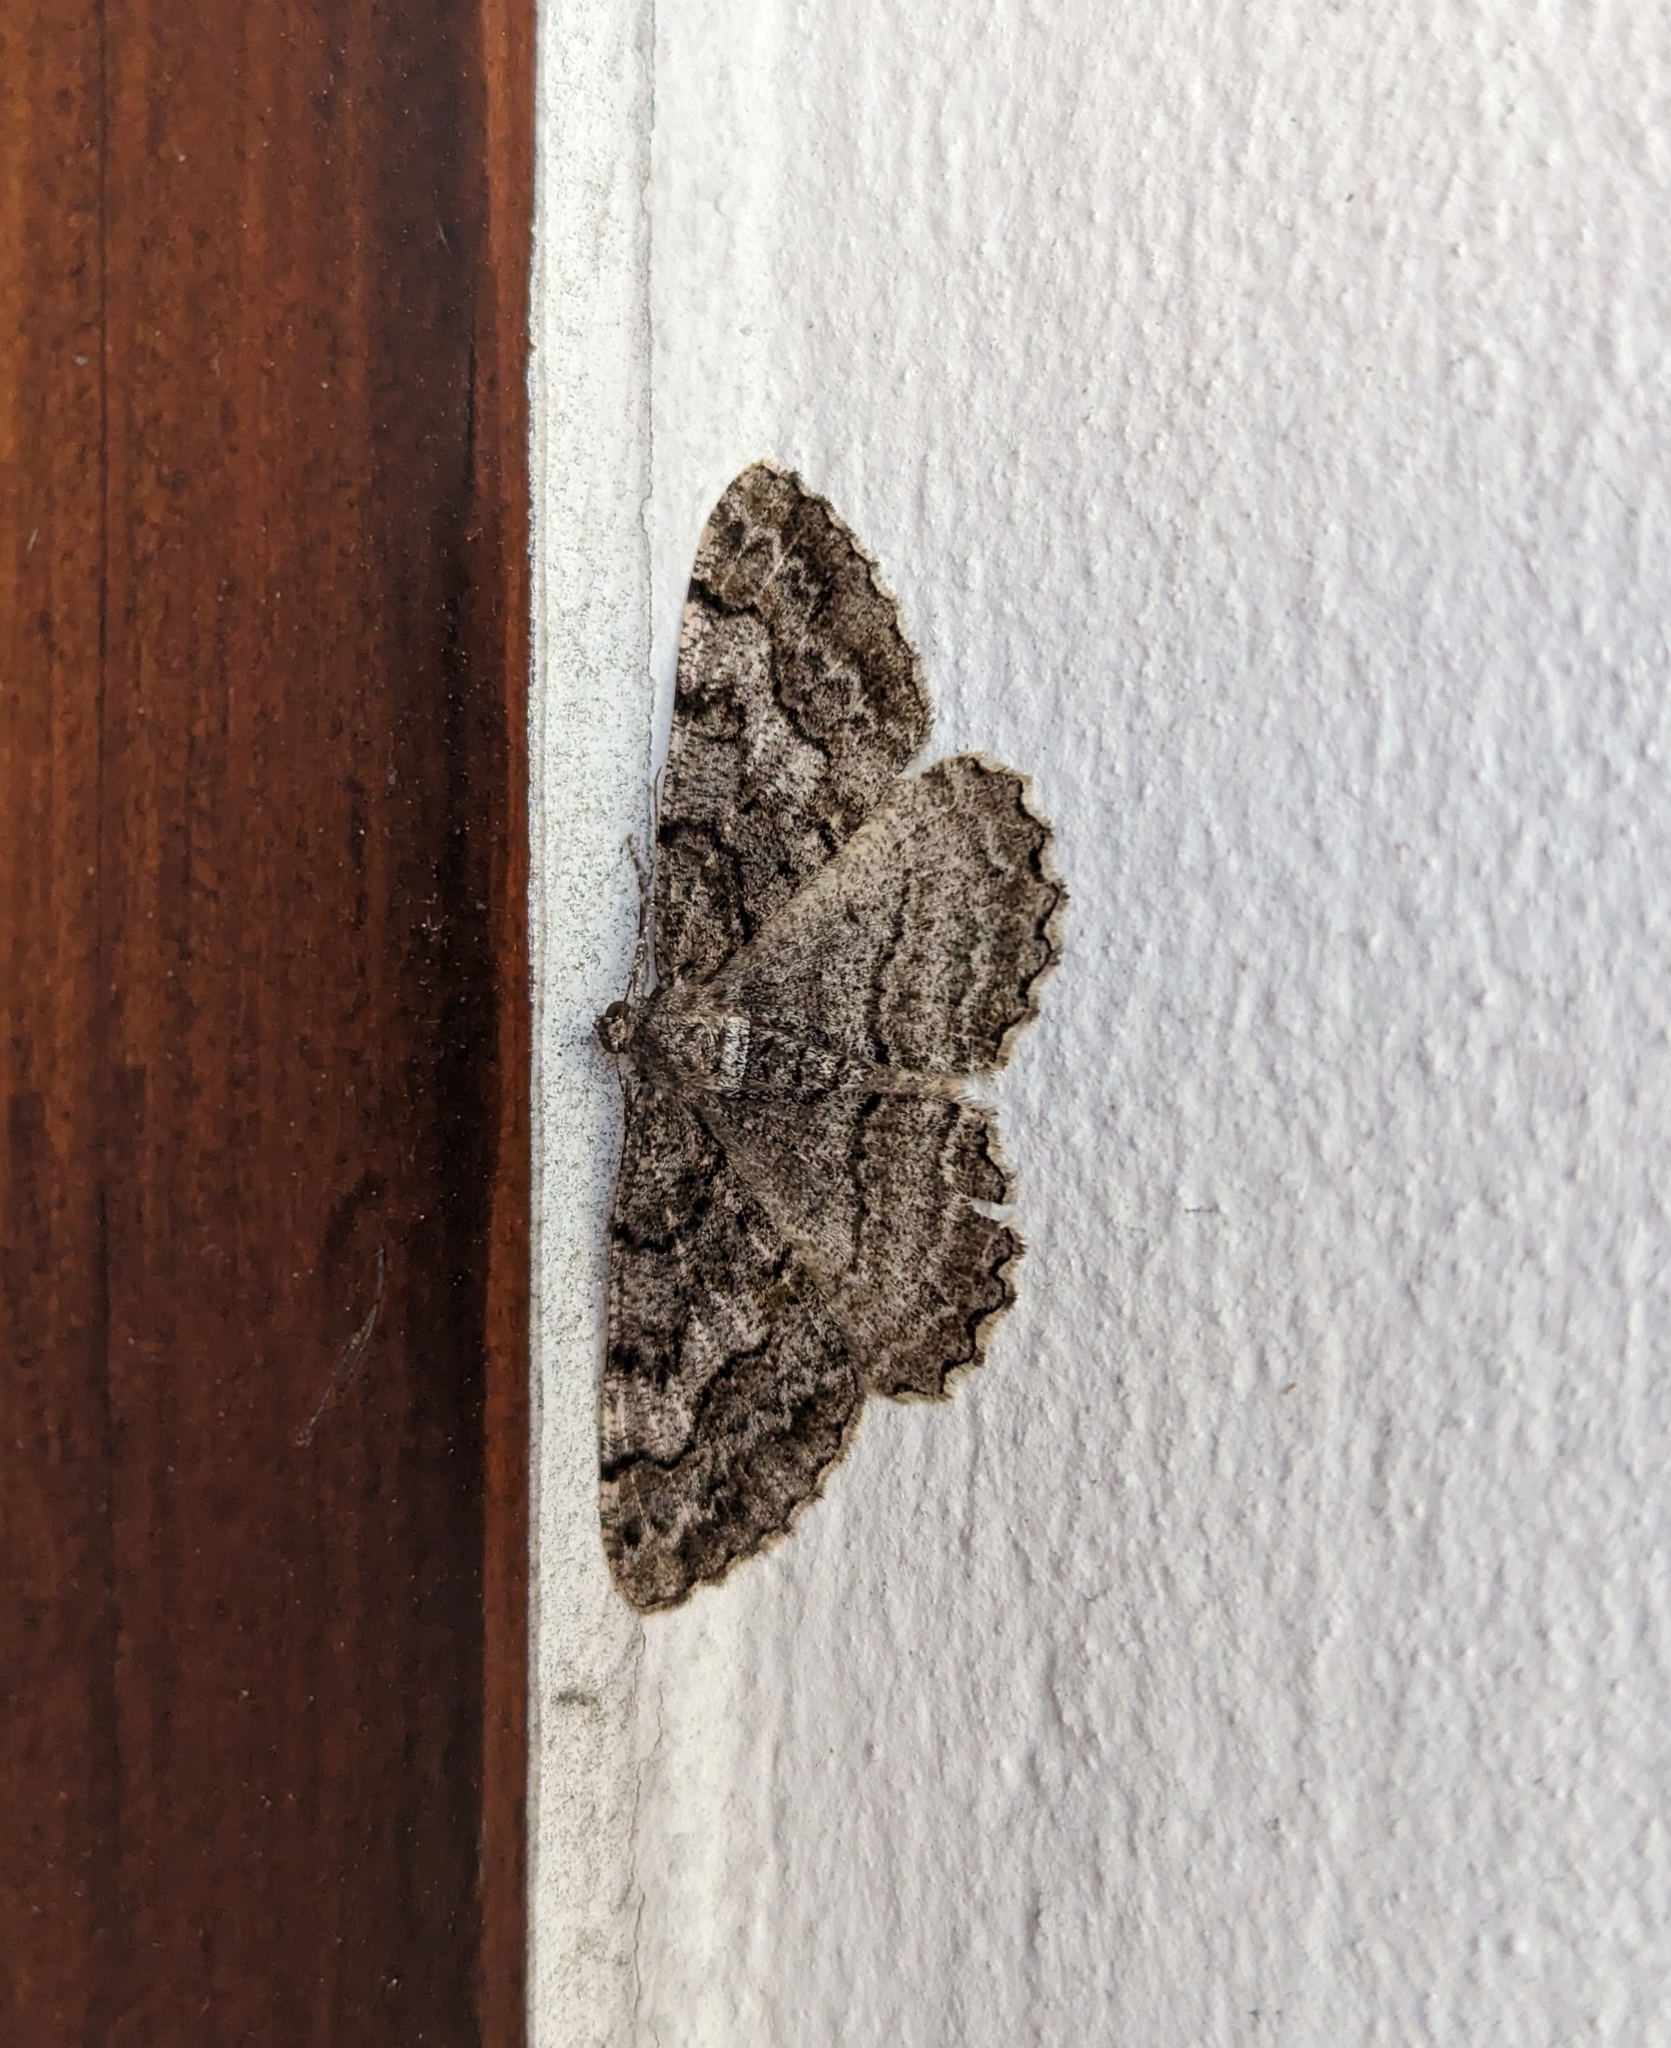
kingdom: Animalia
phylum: Arthropoda
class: Insecta
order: Lepidoptera
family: Geometridae
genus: Alcis
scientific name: Alcis repandata
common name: Mottled beauty
